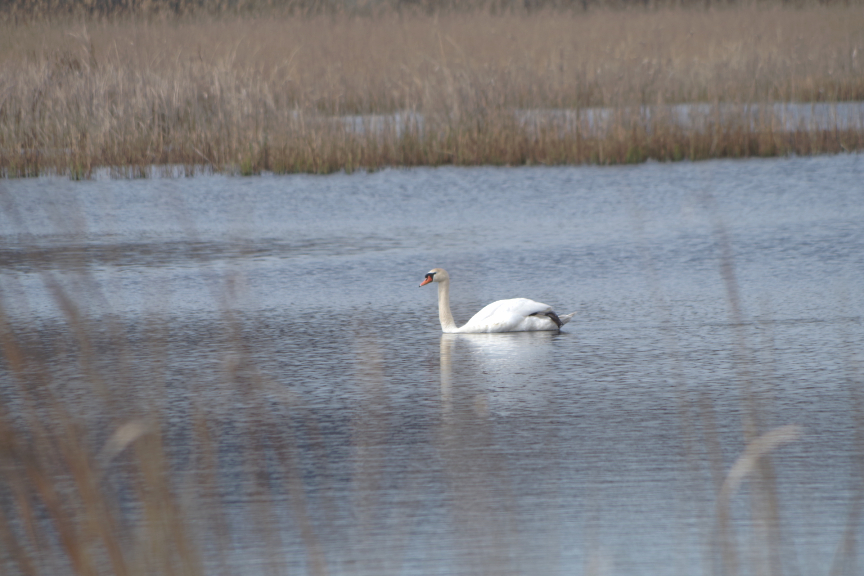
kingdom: Animalia
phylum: Chordata
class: Aves
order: Anseriformes
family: Anatidae
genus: Cygnus
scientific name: Cygnus olor
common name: Mute swan
